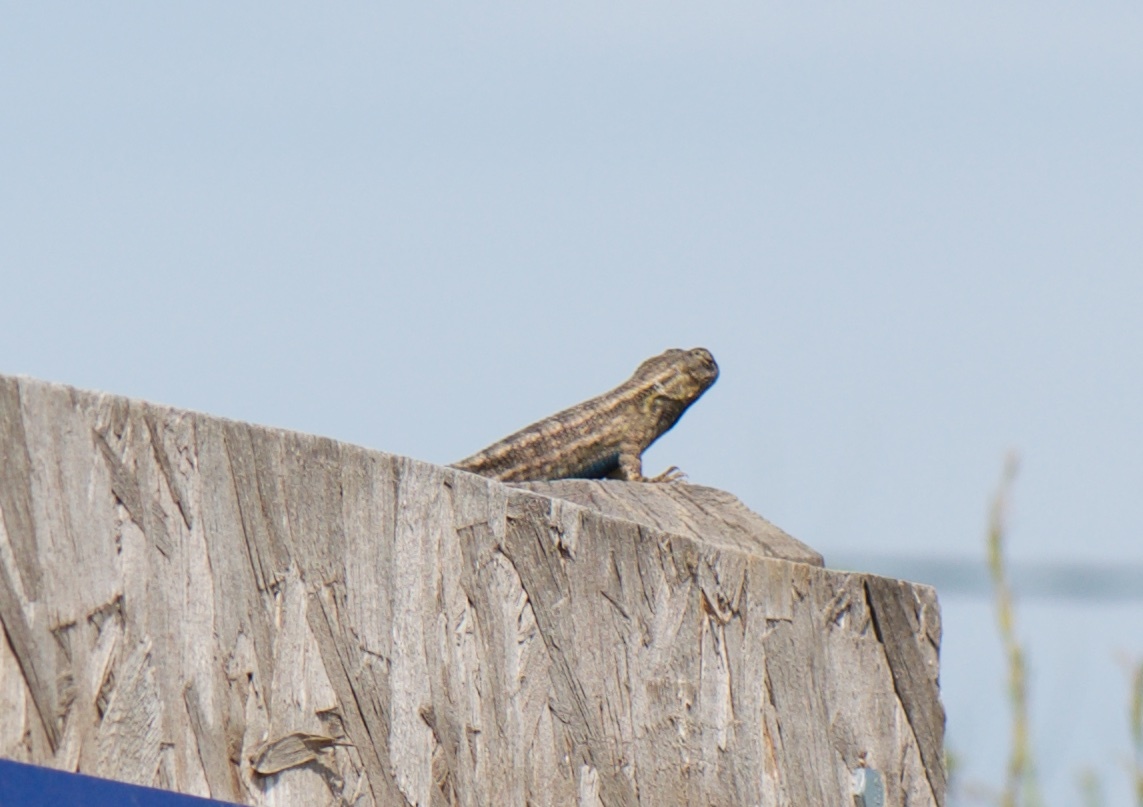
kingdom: Animalia
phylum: Chordata
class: Squamata
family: Phrynosomatidae
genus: Sceloporus
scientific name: Sceloporus occidentalis
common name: Western fence lizard
